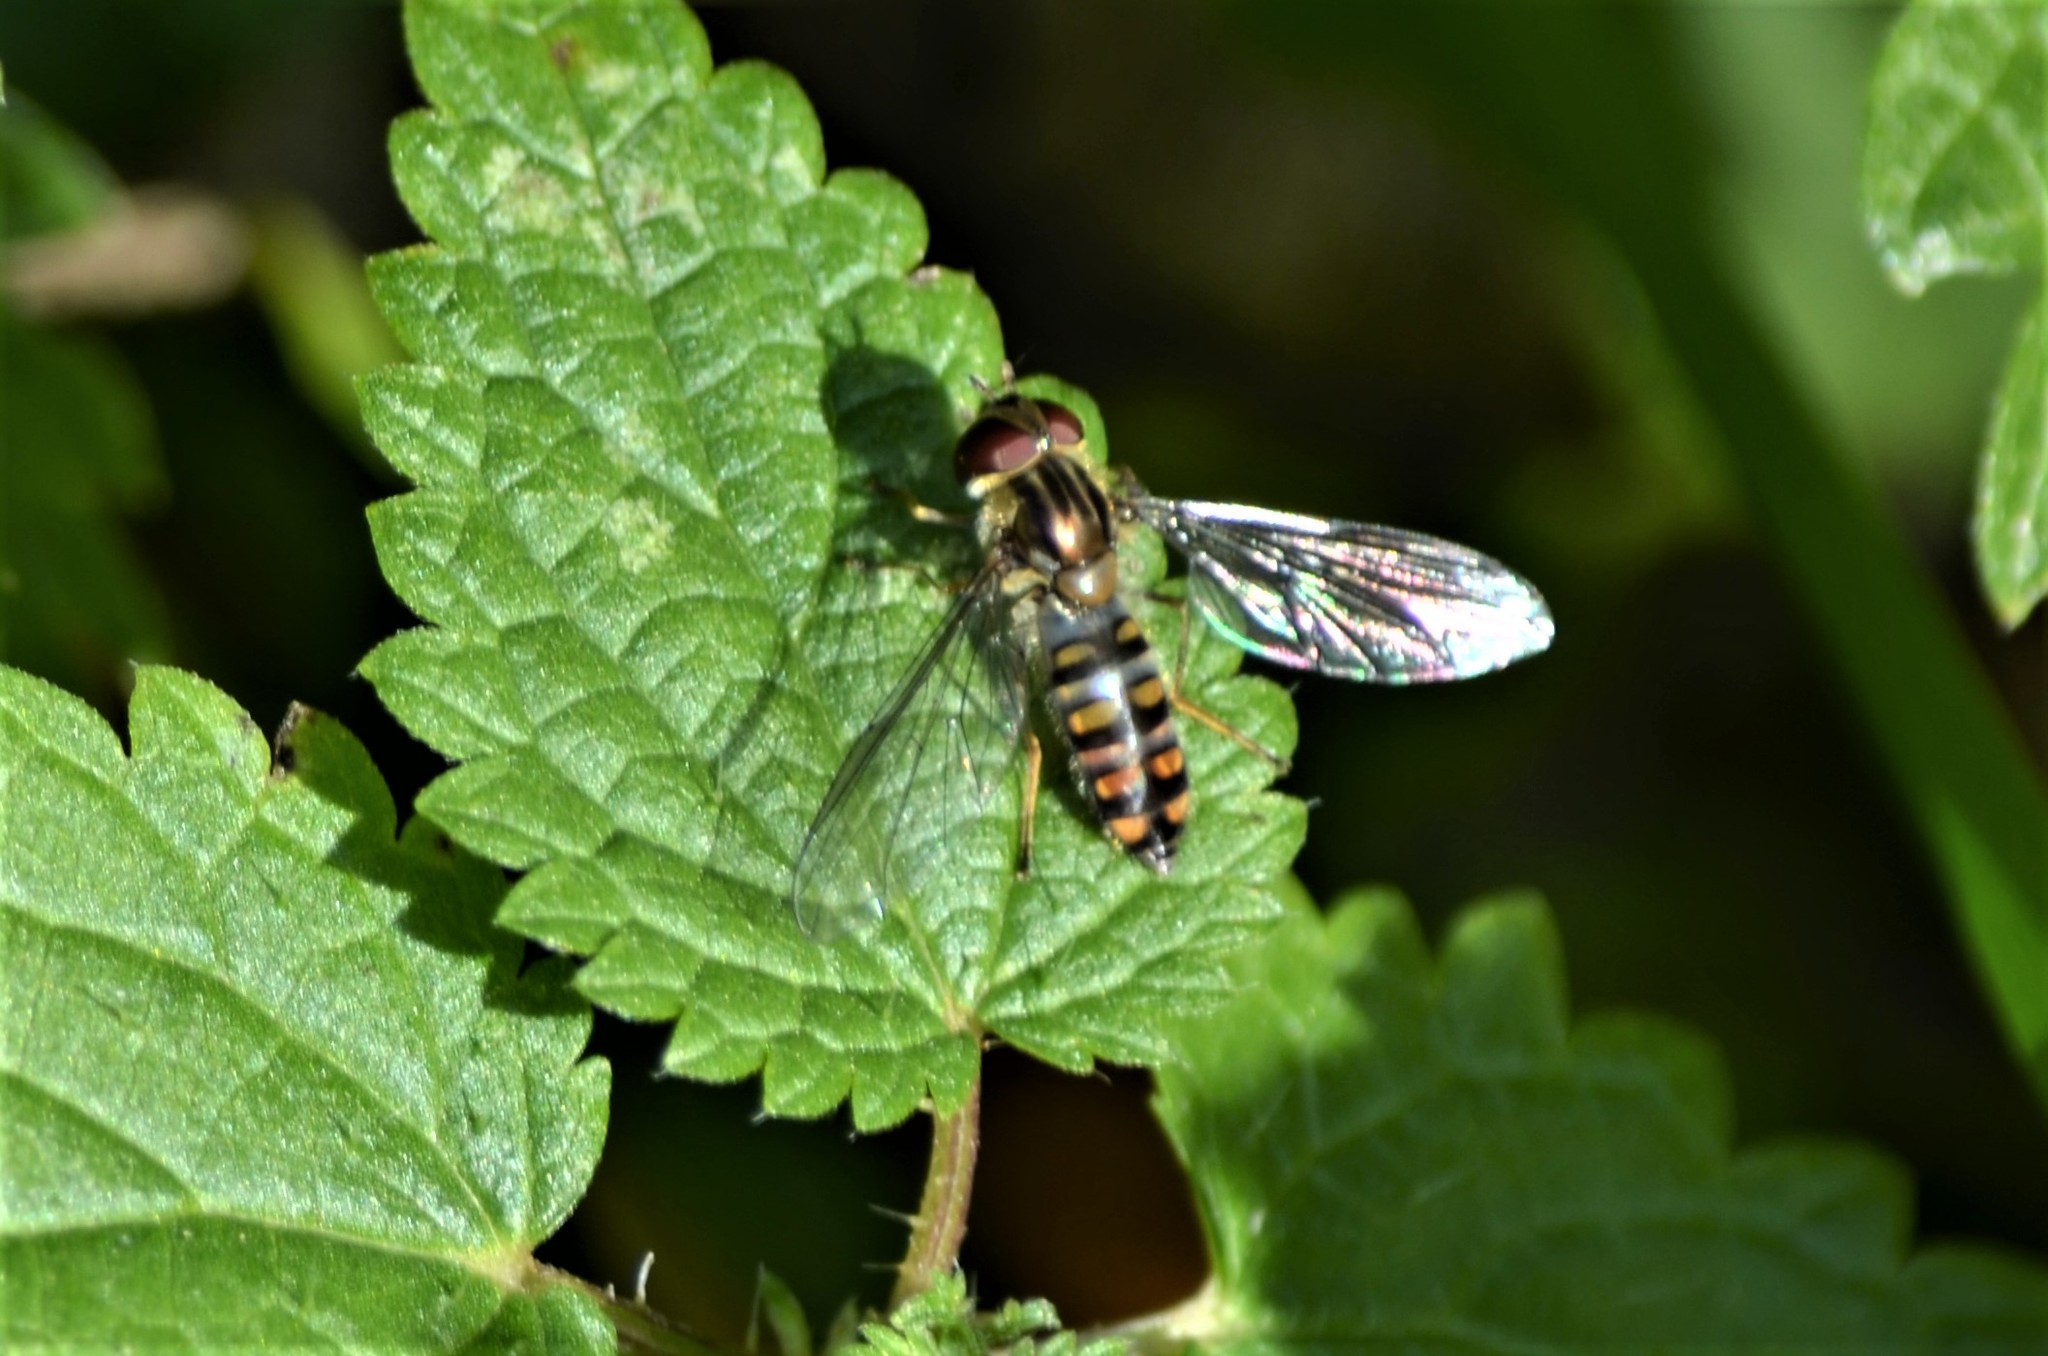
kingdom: Animalia
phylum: Arthropoda
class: Insecta
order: Diptera
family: Syrphidae
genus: Episyrphus
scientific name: Episyrphus balteatus
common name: Marmalade hoverfly
